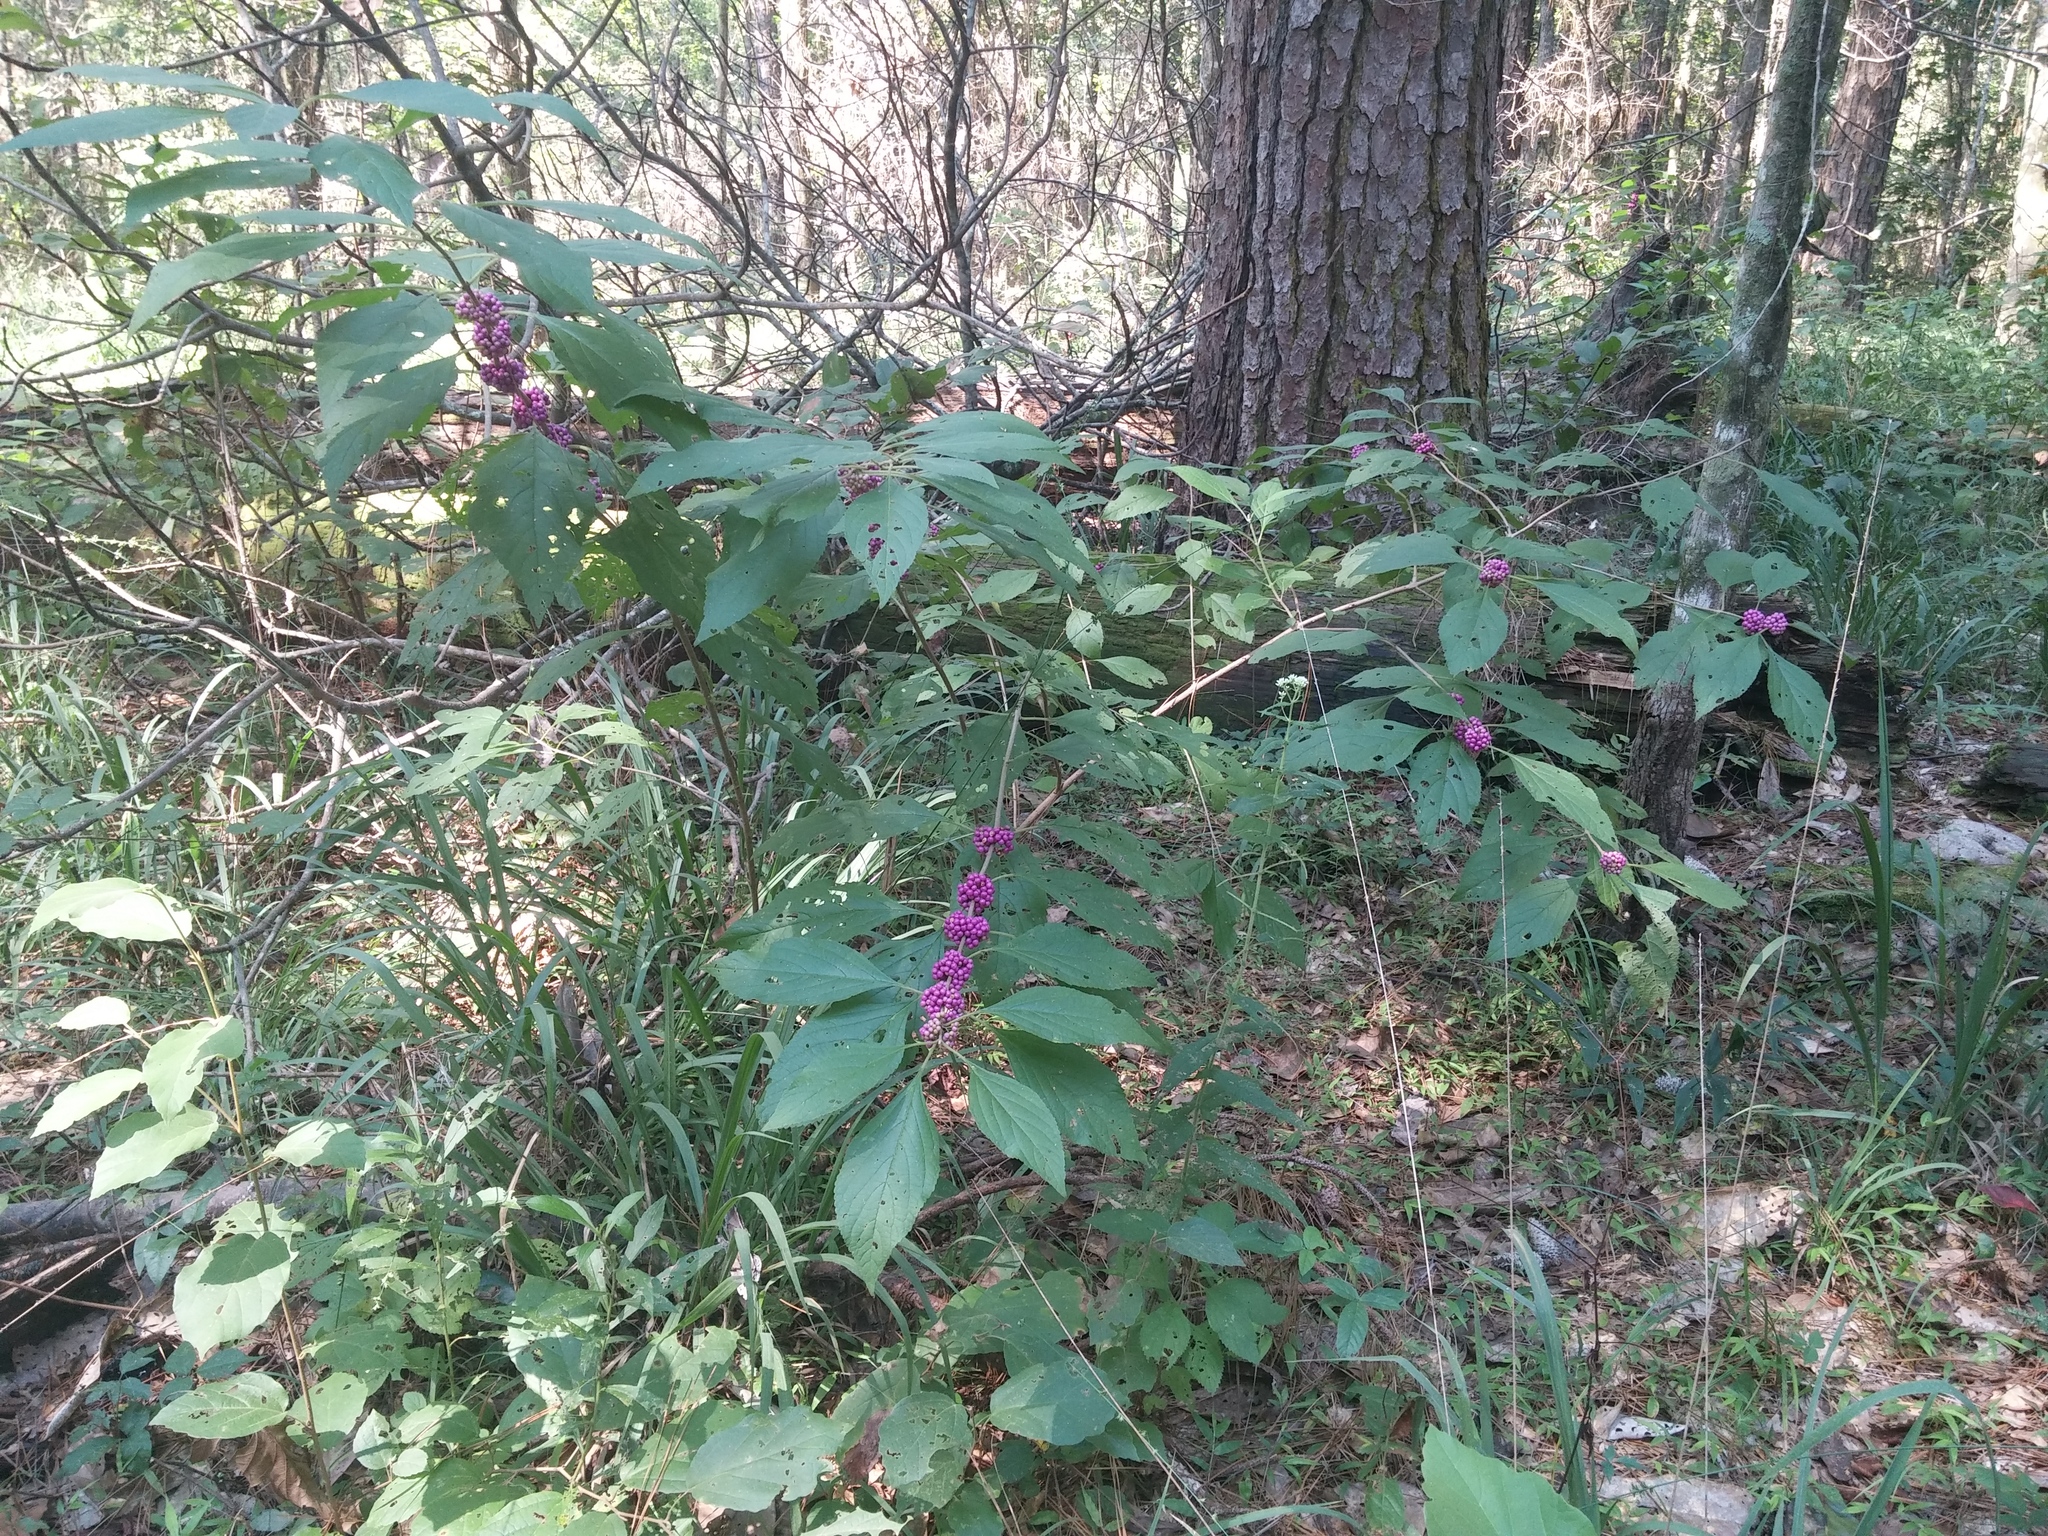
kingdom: Plantae
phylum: Tracheophyta
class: Magnoliopsida
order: Lamiales
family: Lamiaceae
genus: Callicarpa
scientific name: Callicarpa americana
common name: American beautyberry
